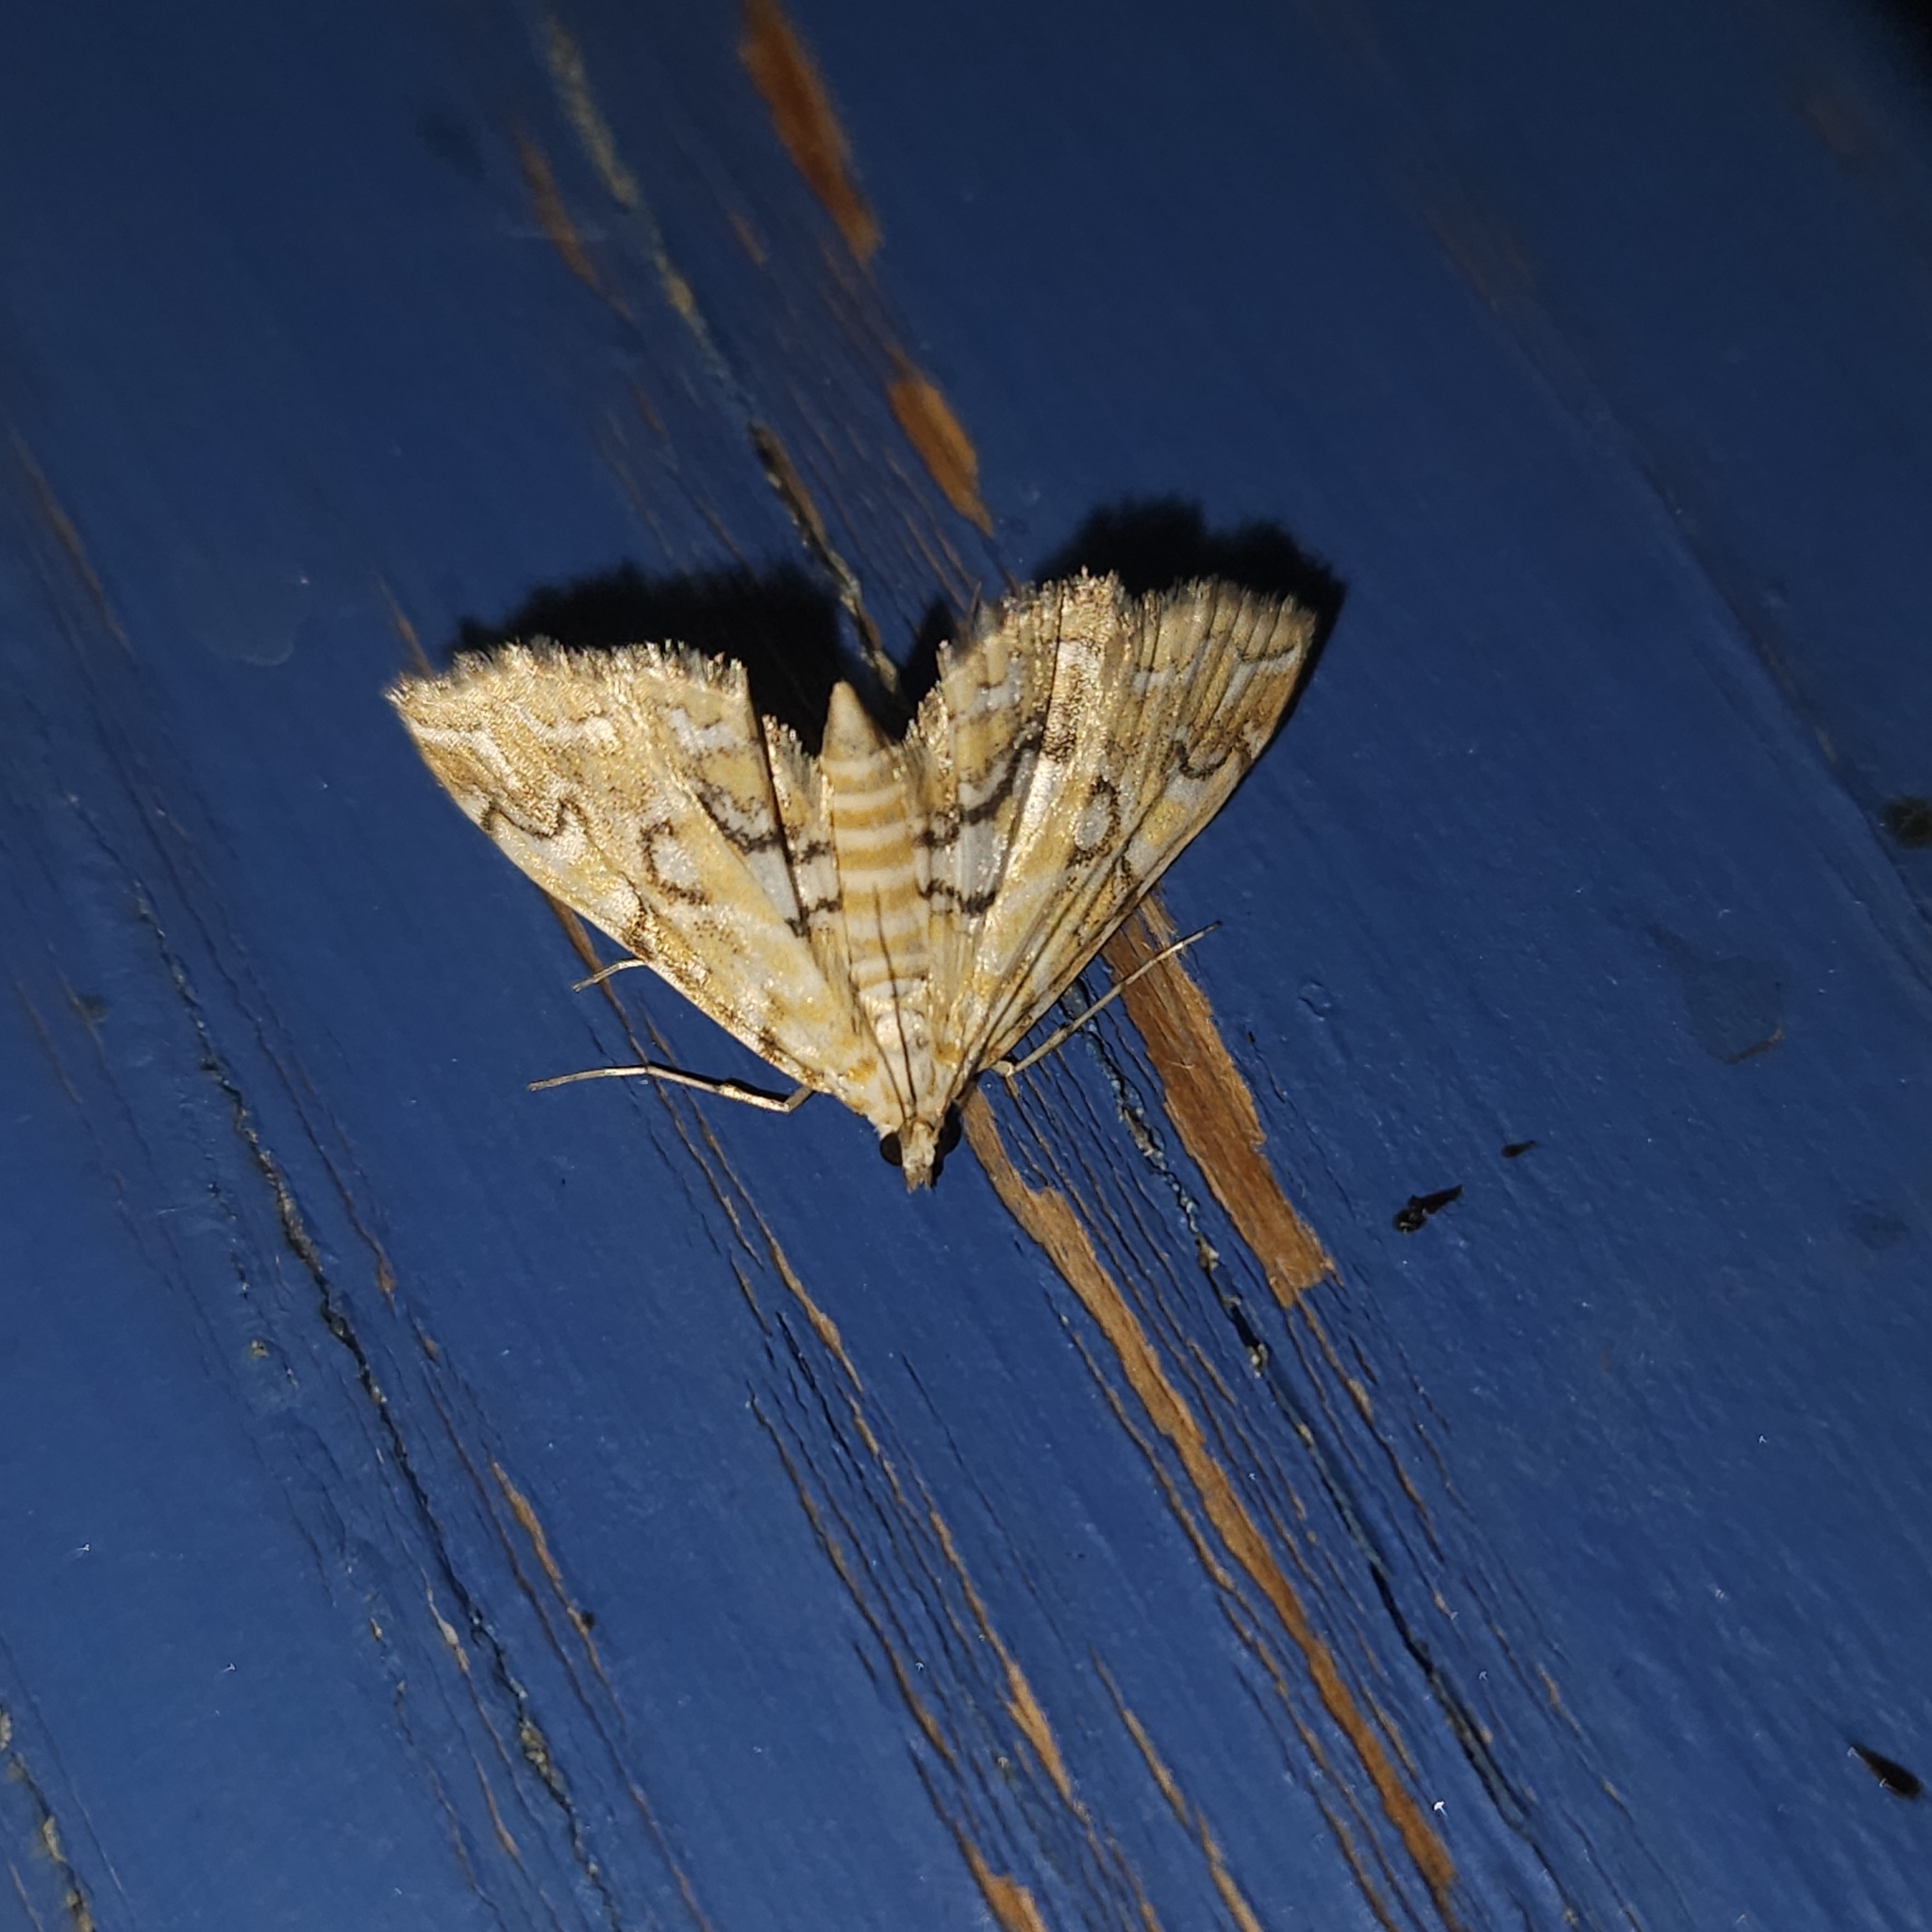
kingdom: Animalia
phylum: Arthropoda
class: Insecta
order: Lepidoptera
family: Crambidae
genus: Elophila
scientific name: Elophila icciusalis
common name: Pondside pyralid moth
